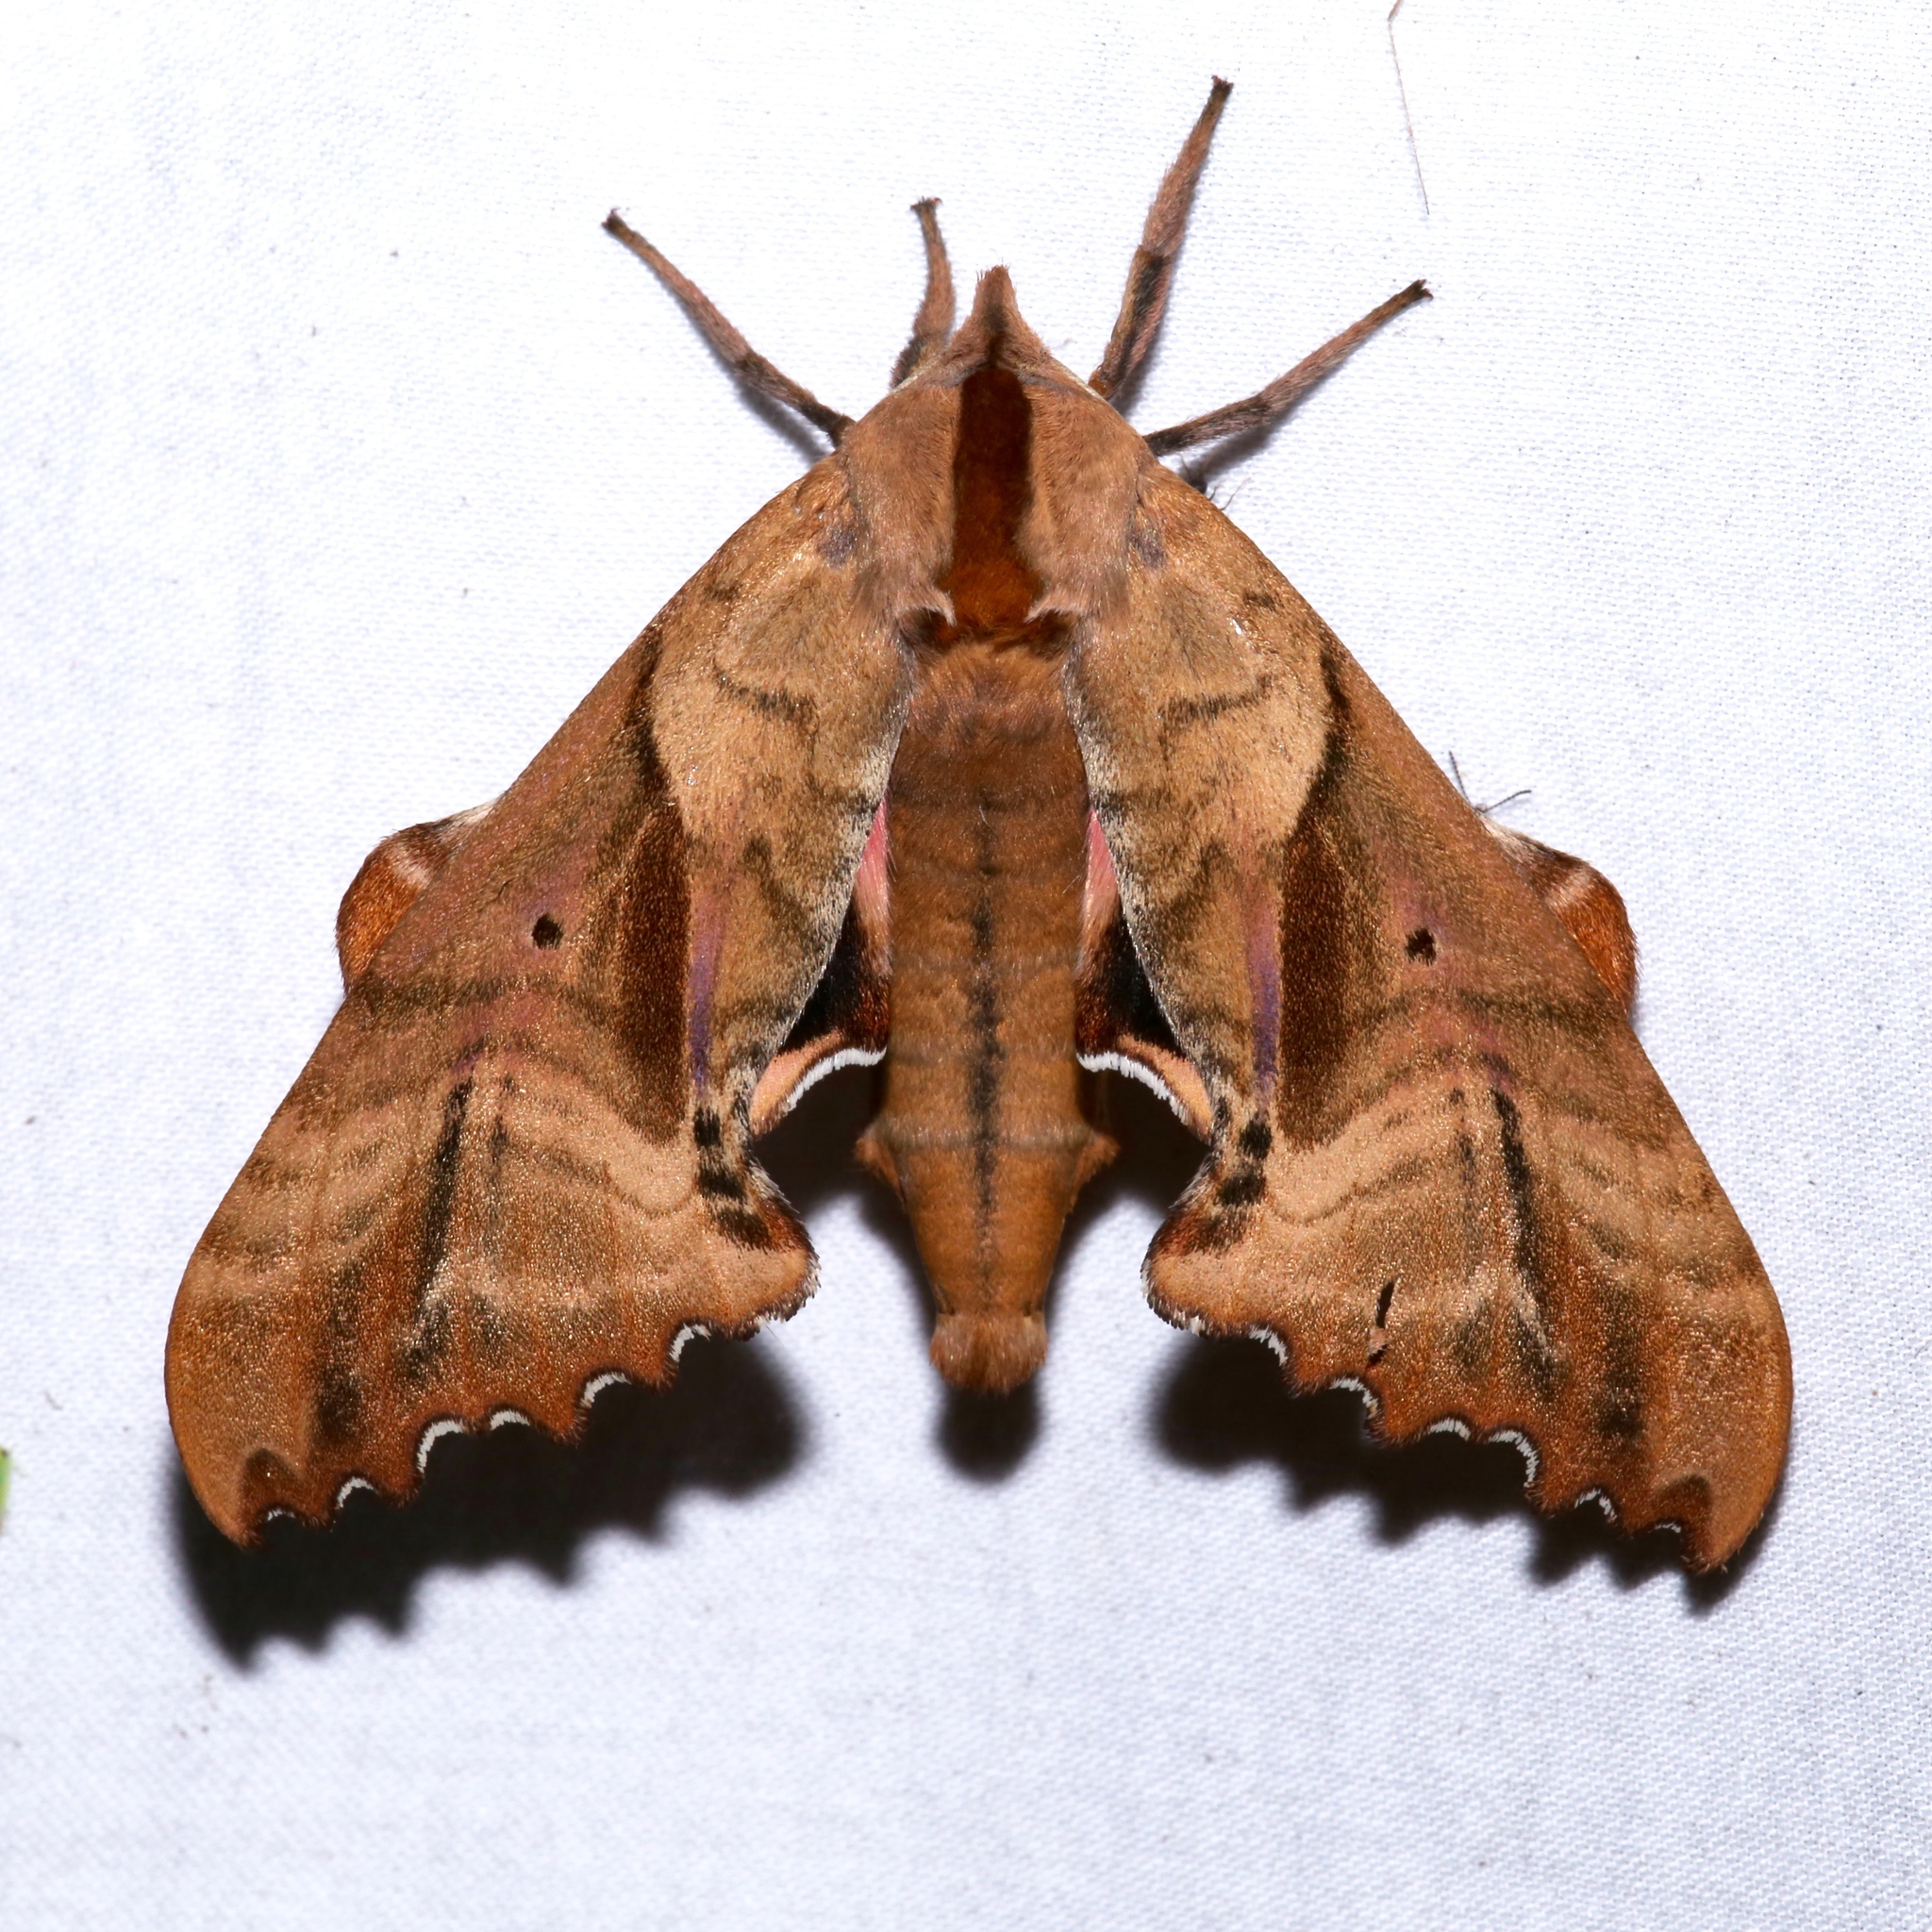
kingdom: Animalia
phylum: Arthropoda
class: Insecta
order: Lepidoptera
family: Sphingidae
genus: Paonias
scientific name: Paonias excaecata
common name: Blind-eyed sphinx
